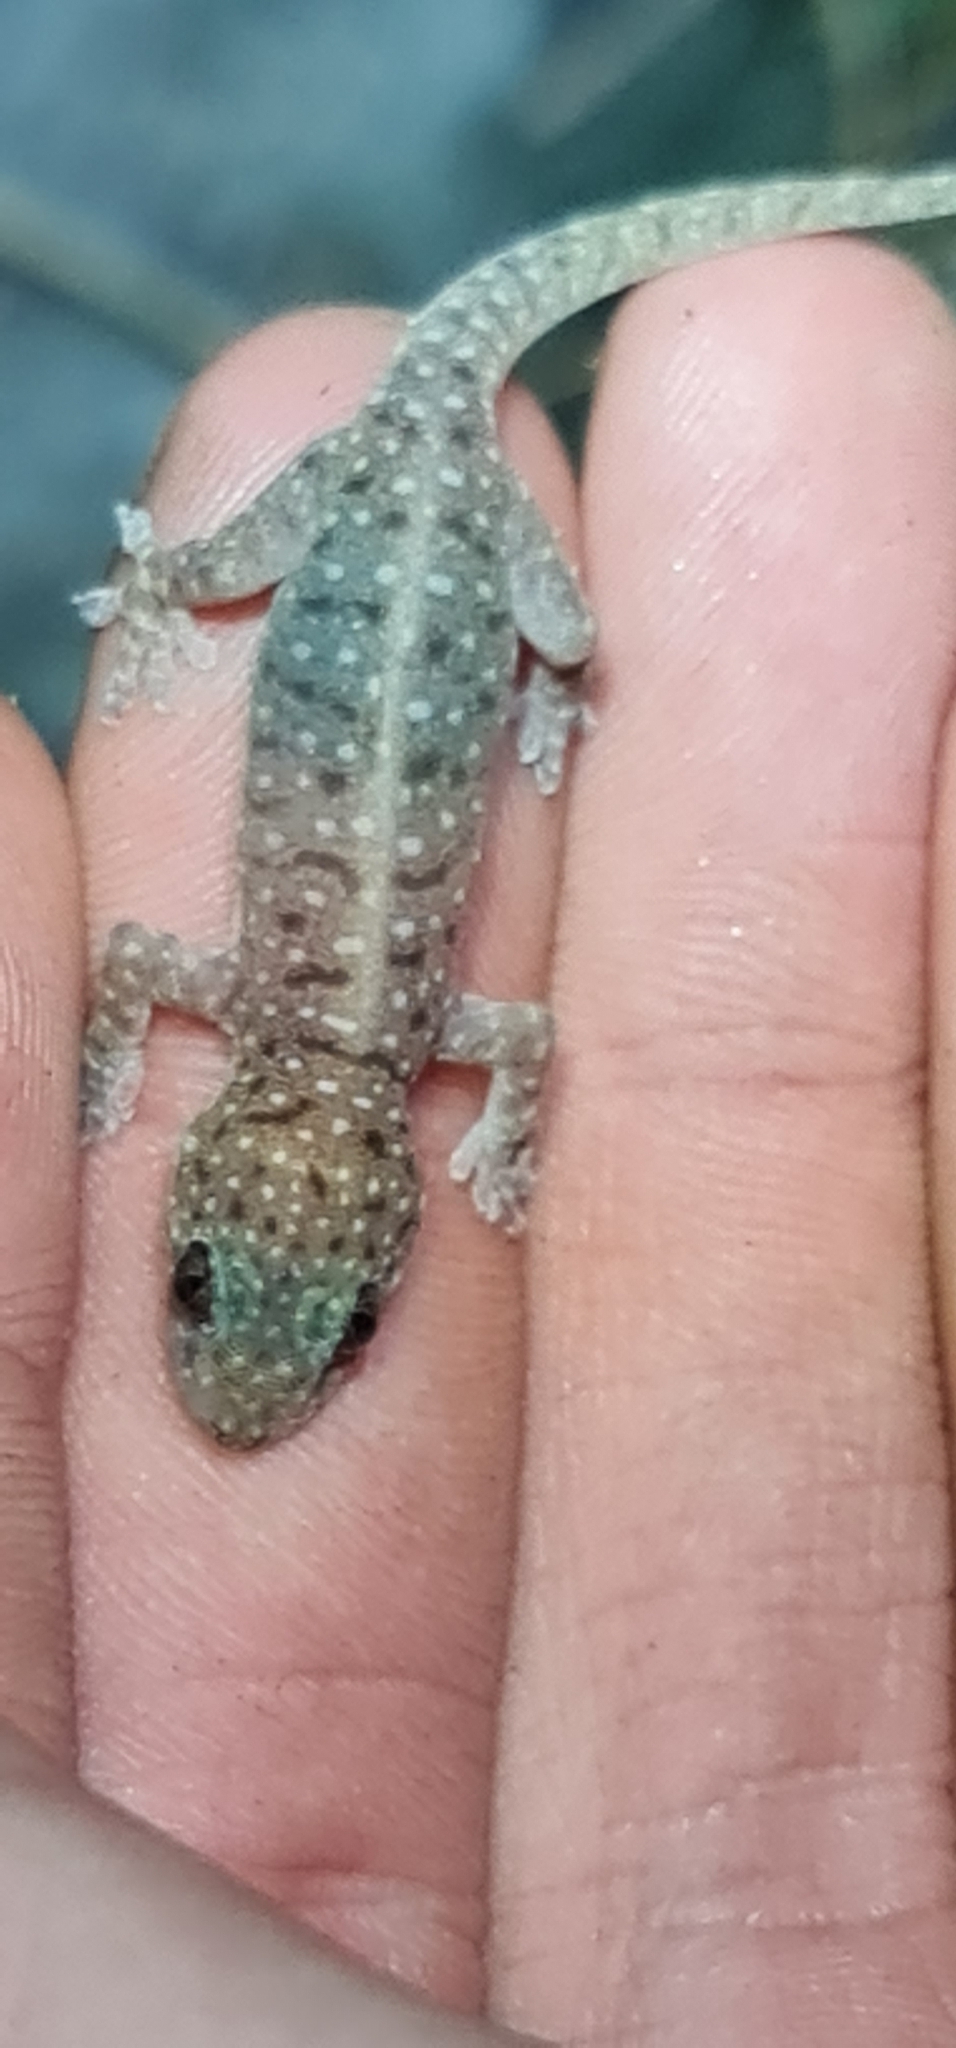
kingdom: Animalia
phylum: Chordata
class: Squamata
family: Gekkonidae
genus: Gehyra
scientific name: Gehyra nana
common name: Northern spotted rock dtella
